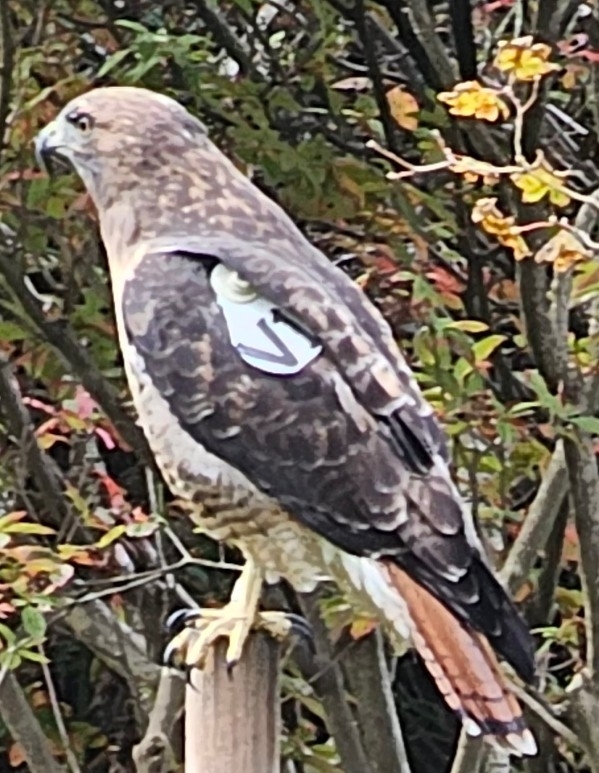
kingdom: Animalia
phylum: Chordata
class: Aves
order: Accipitriformes
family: Accipitridae
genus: Buteo
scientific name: Buteo jamaicensis
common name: Red-tailed hawk
